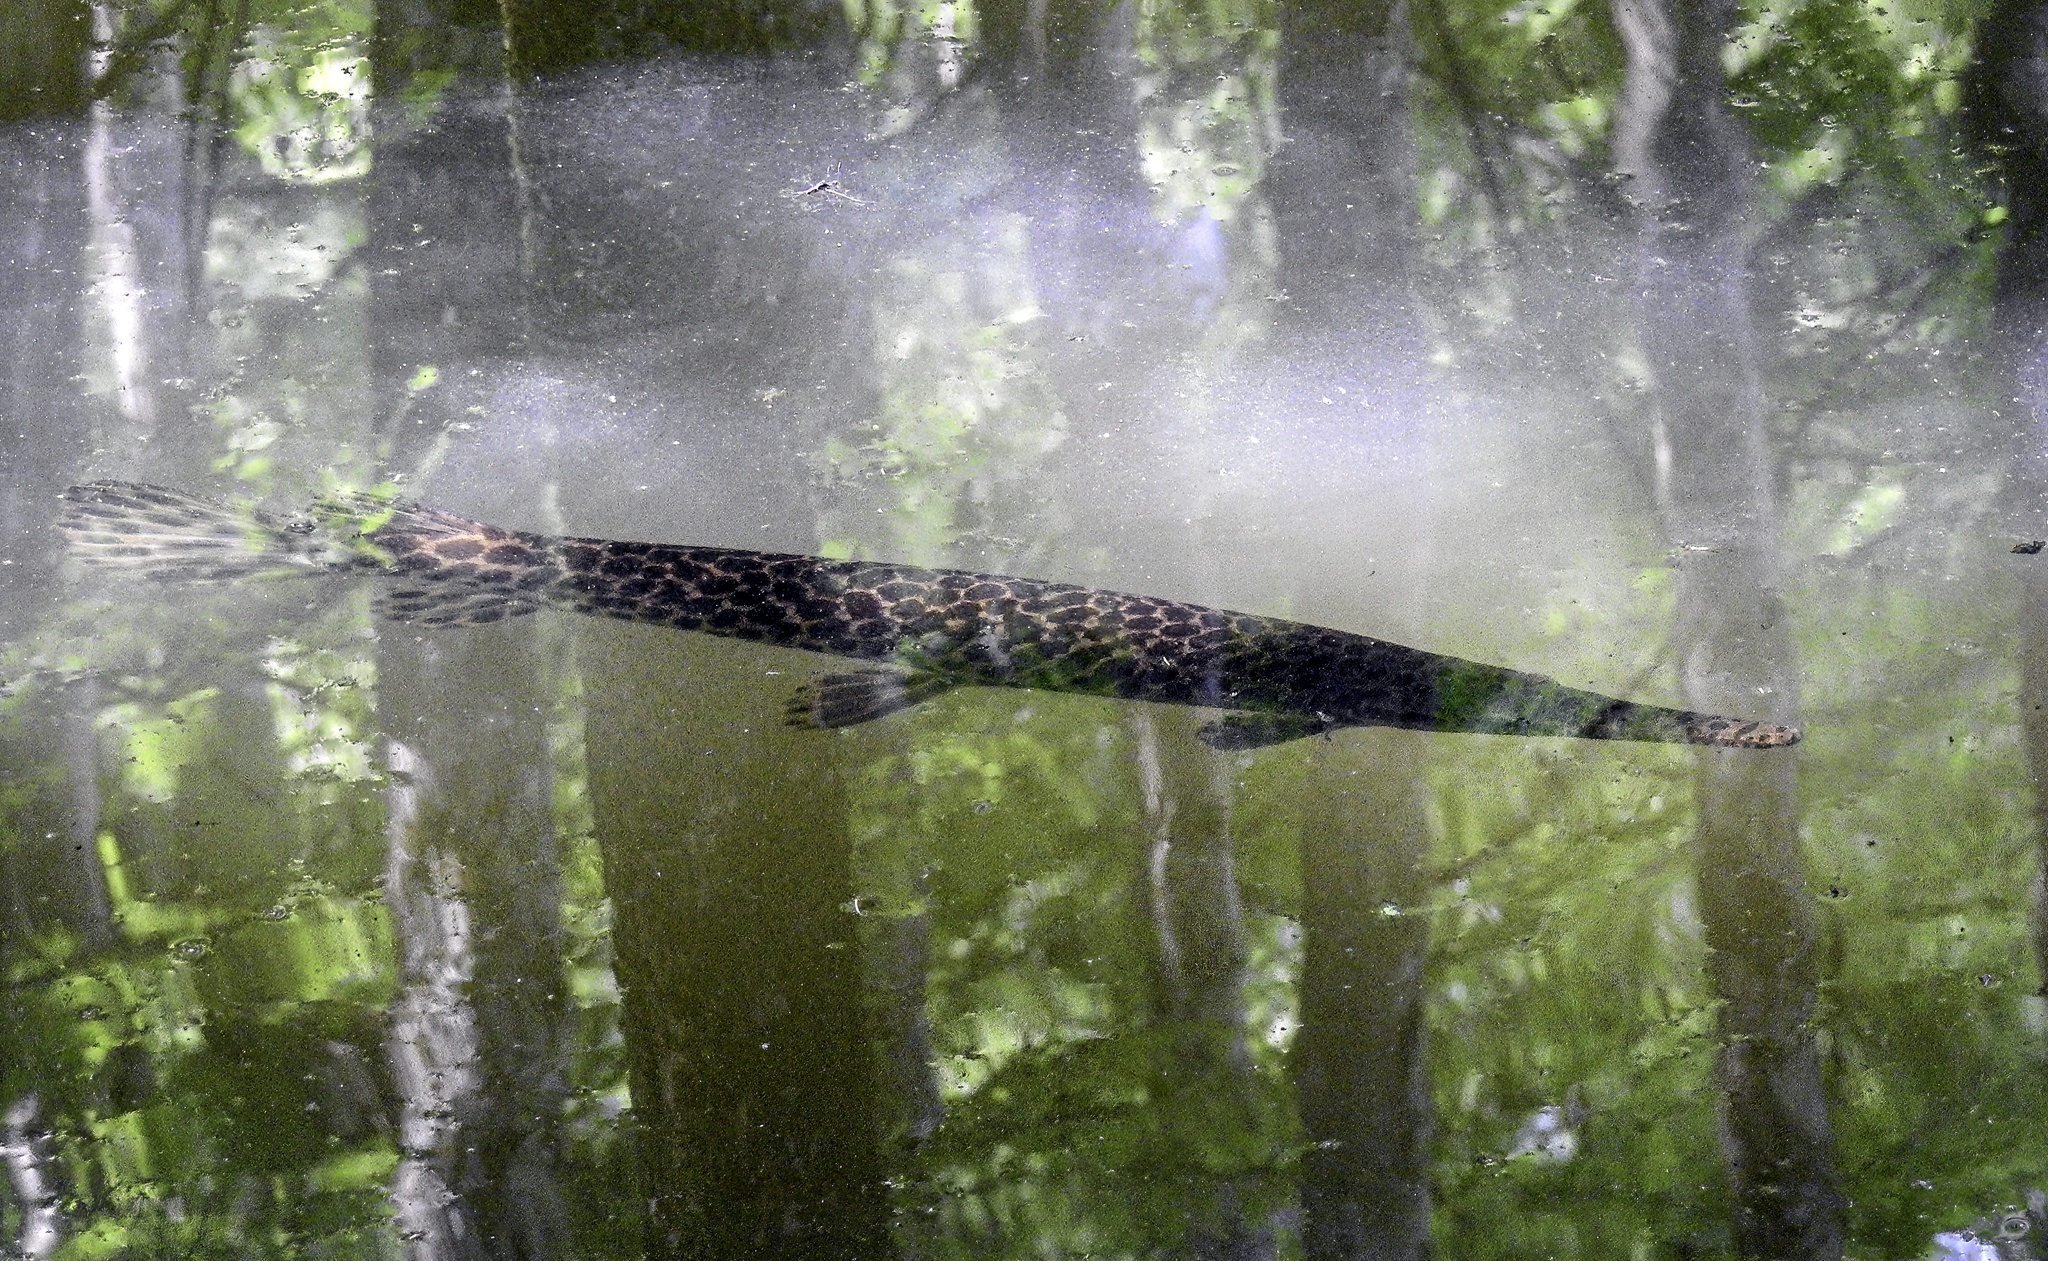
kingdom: Animalia
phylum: Chordata
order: Lepisosteiformes
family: Lepisosteidae
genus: Lepisosteus
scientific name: Lepisosteus oculatus
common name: Spotted gar
